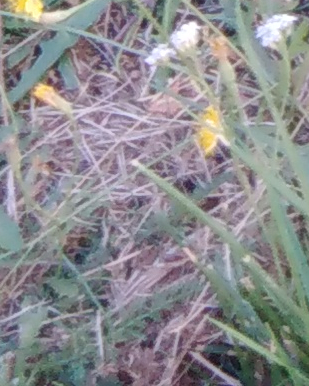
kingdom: Plantae
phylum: Tracheophyta
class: Magnoliopsida
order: Asterales
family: Asteraceae
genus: Achillea
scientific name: Achillea millefolium
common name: Yarrow
